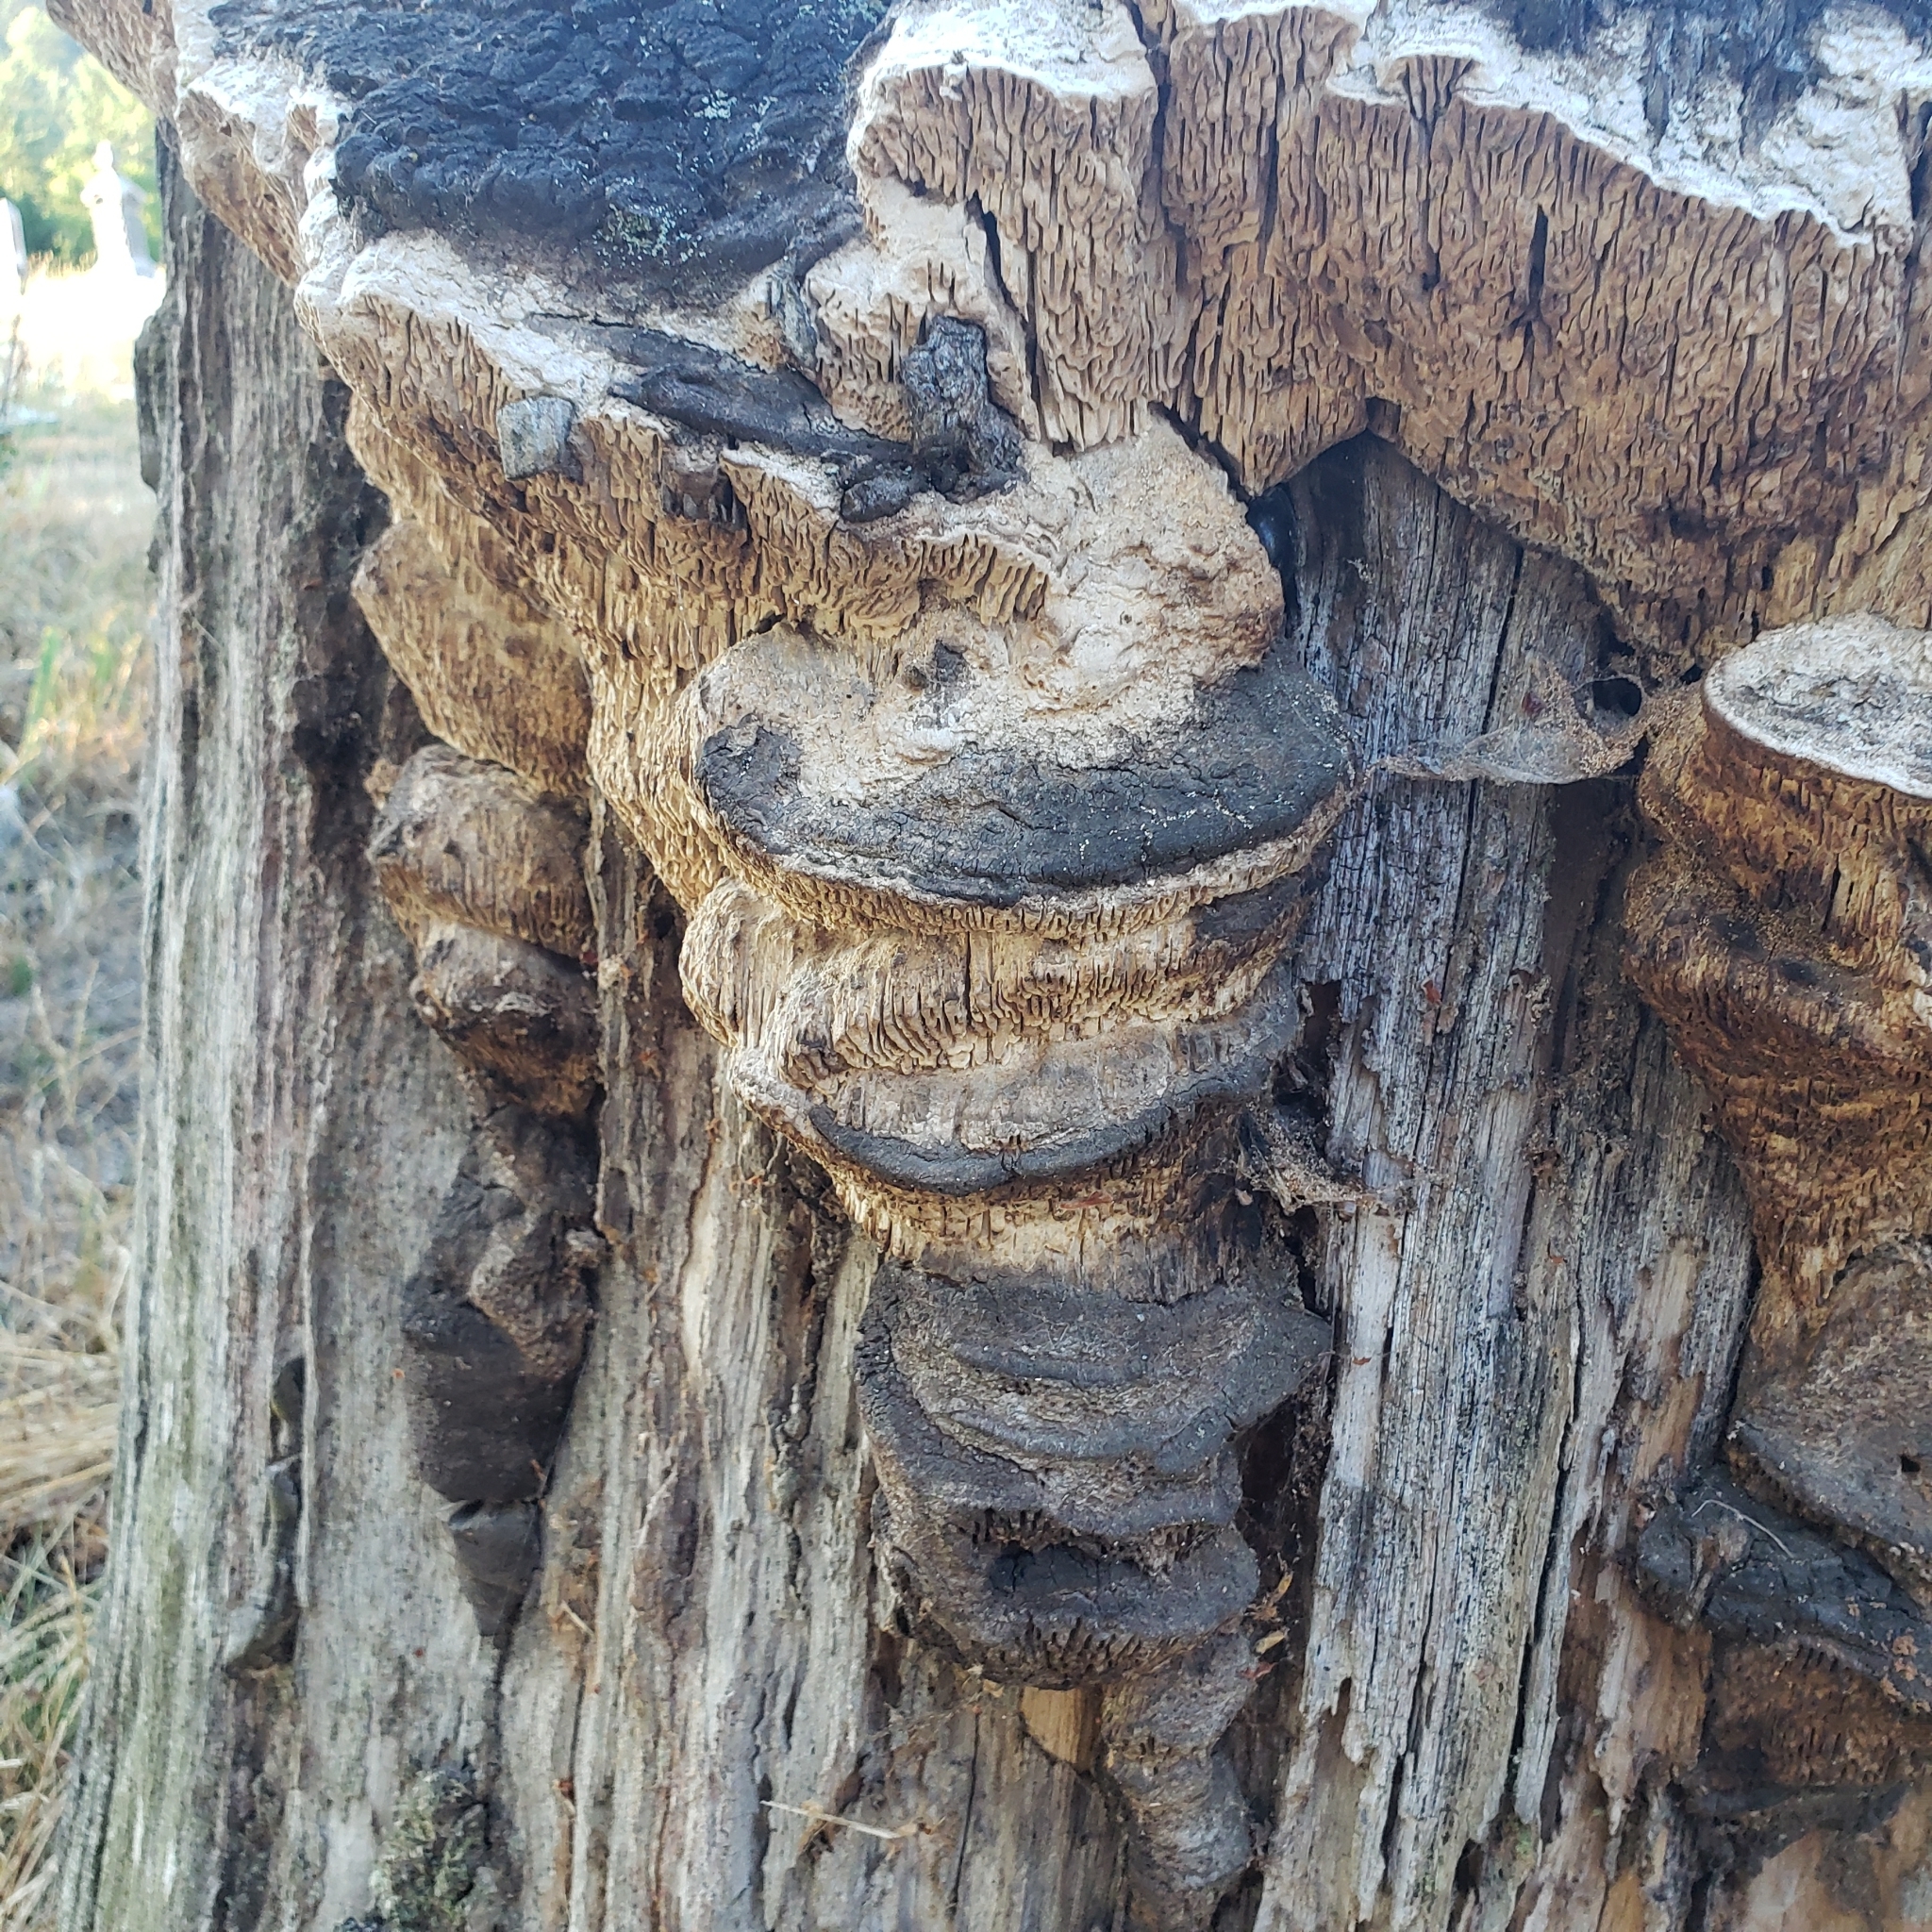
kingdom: Fungi
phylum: Basidiomycota
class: Agaricomycetes
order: Polyporales
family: Fomitopsidaceae
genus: Fomitopsis
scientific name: Fomitopsis
